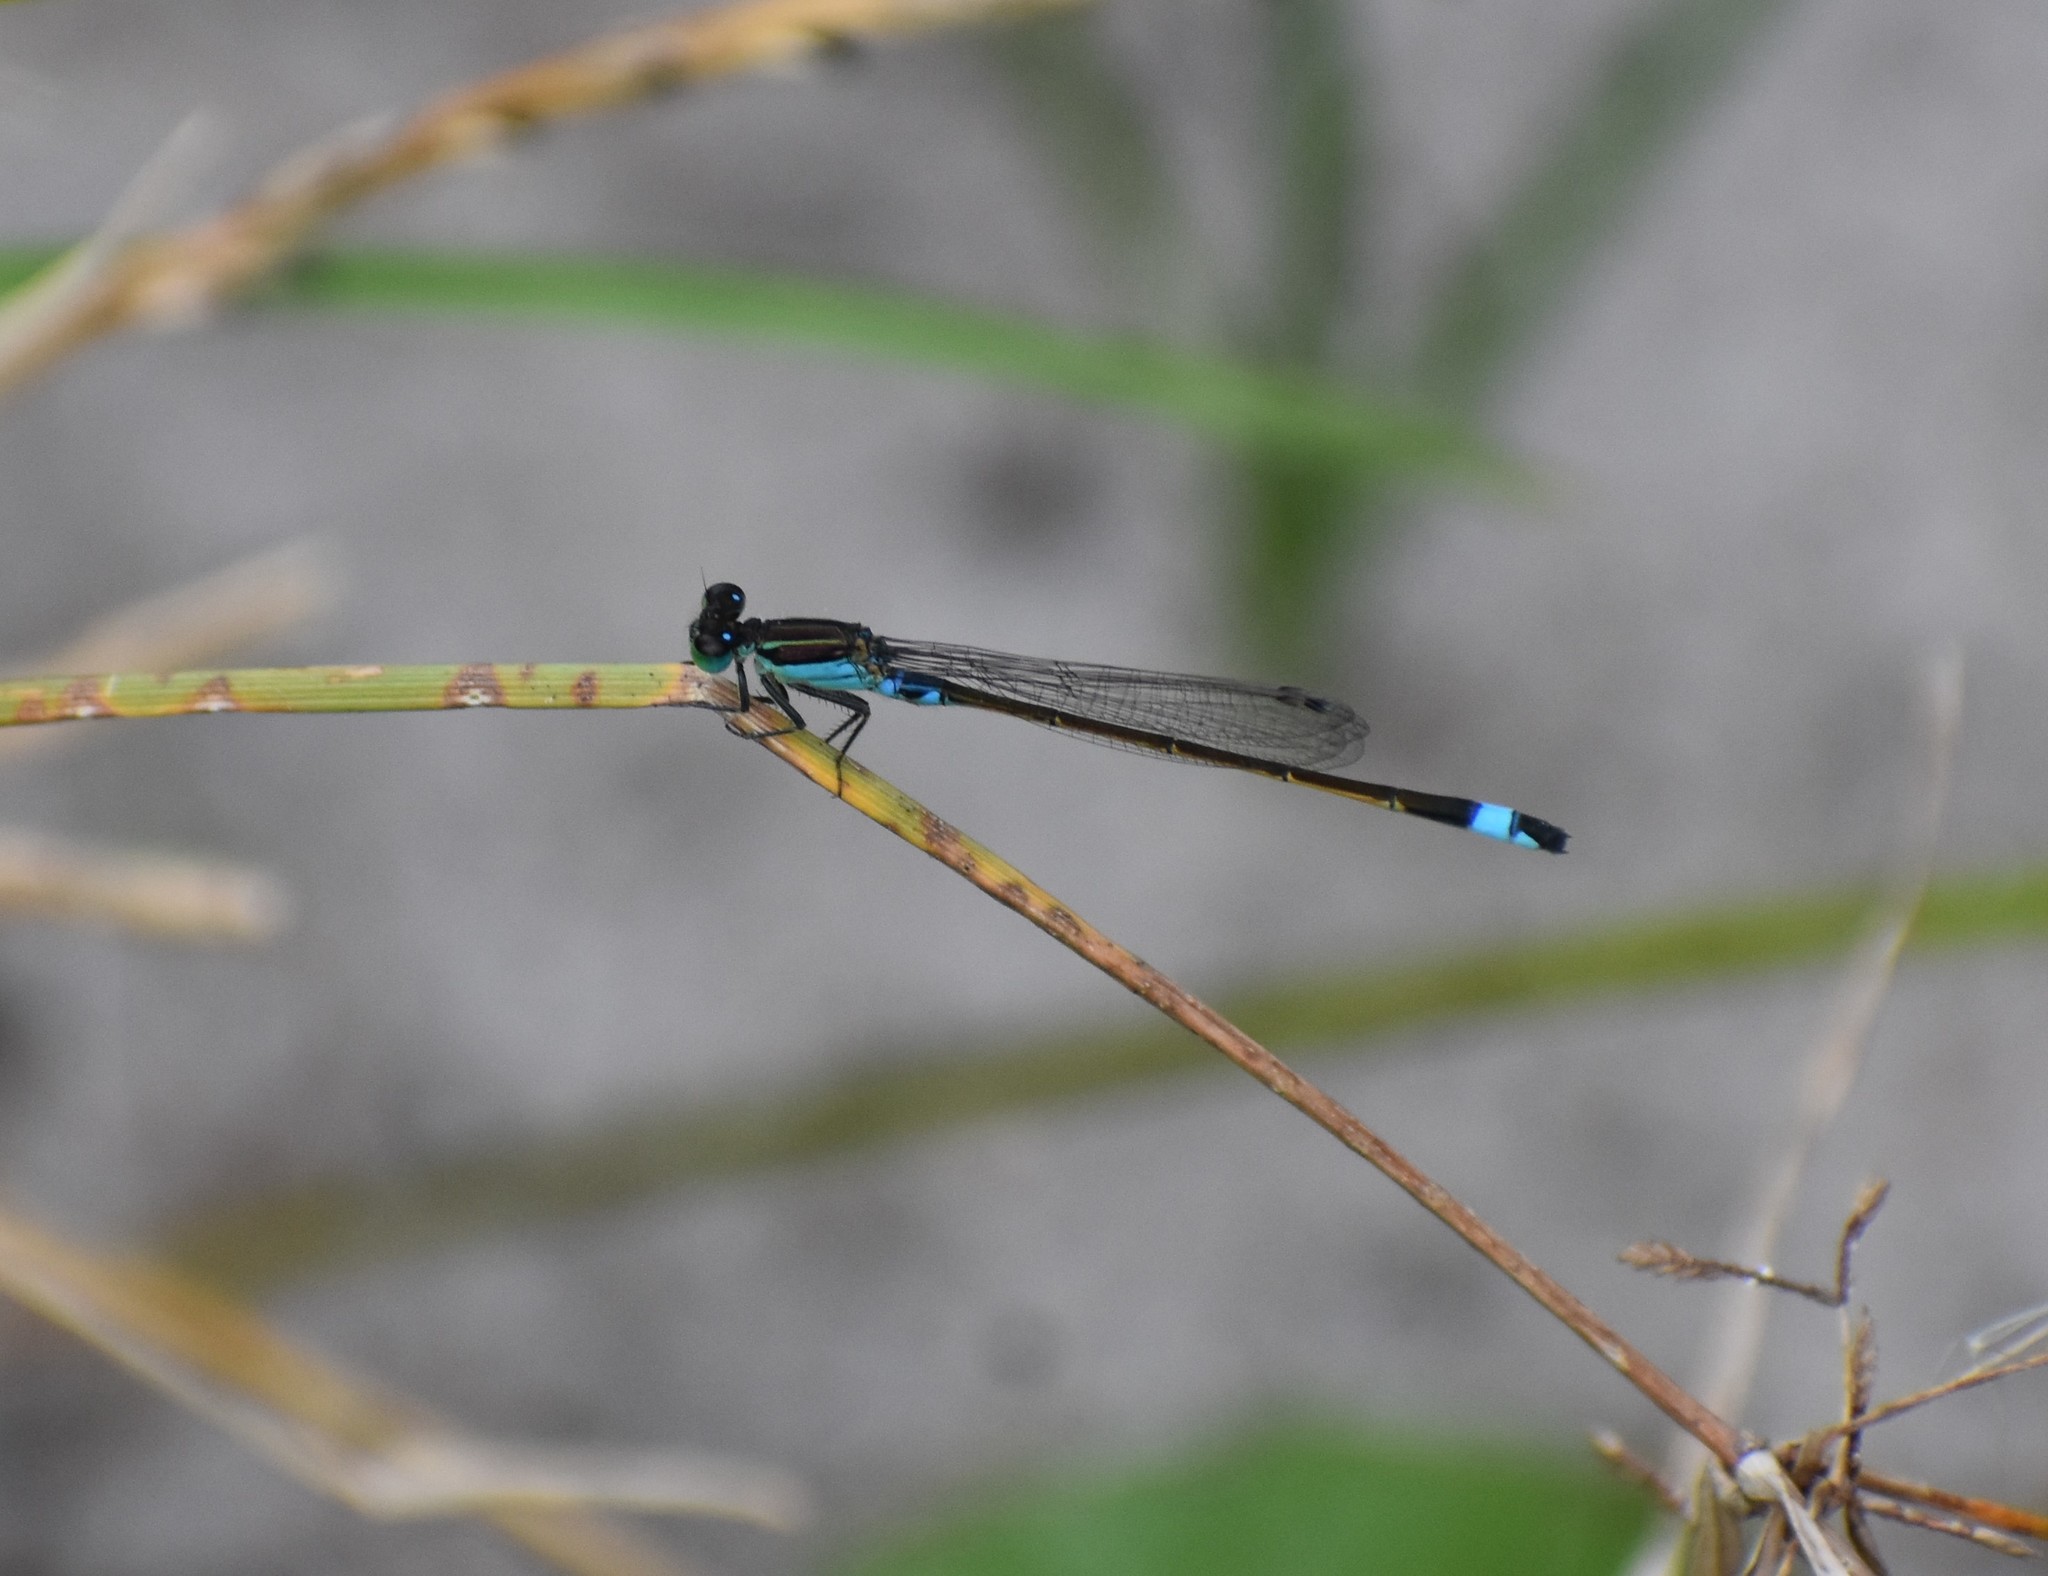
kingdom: Animalia
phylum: Arthropoda
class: Insecta
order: Odonata
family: Coenagrionidae
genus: Ischnura
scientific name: Ischnura senegalensis
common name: Tropical bluetail
